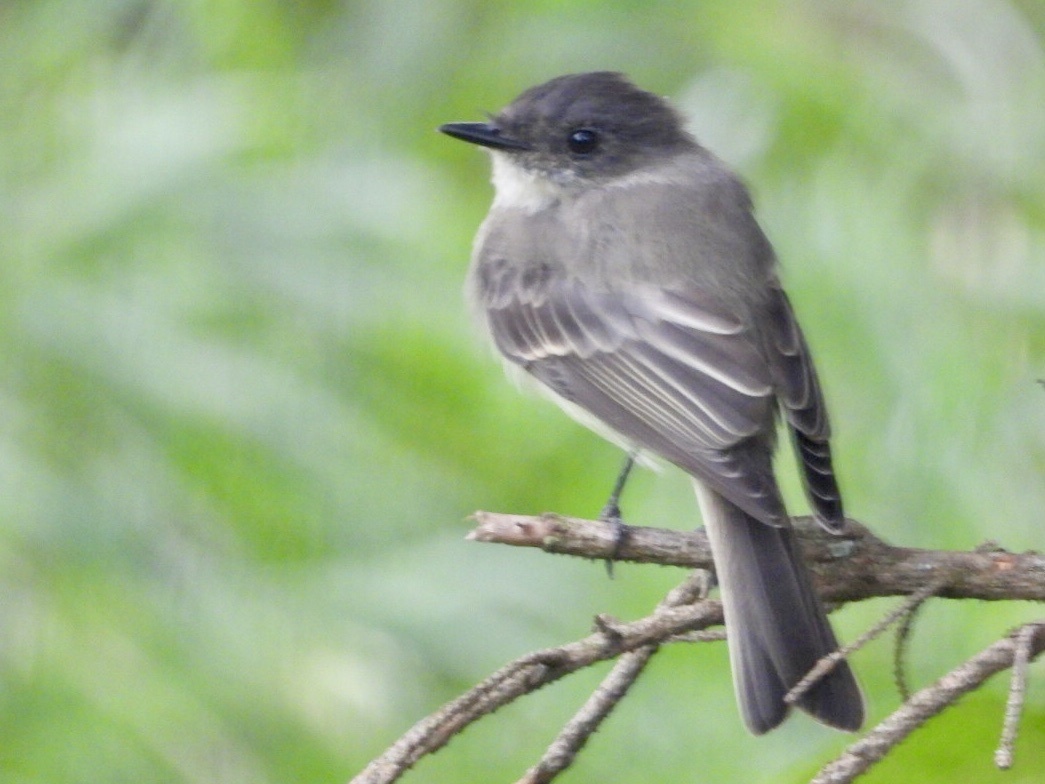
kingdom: Animalia
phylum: Chordata
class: Aves
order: Passeriformes
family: Tyrannidae
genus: Sayornis
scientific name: Sayornis phoebe
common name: Eastern phoebe
